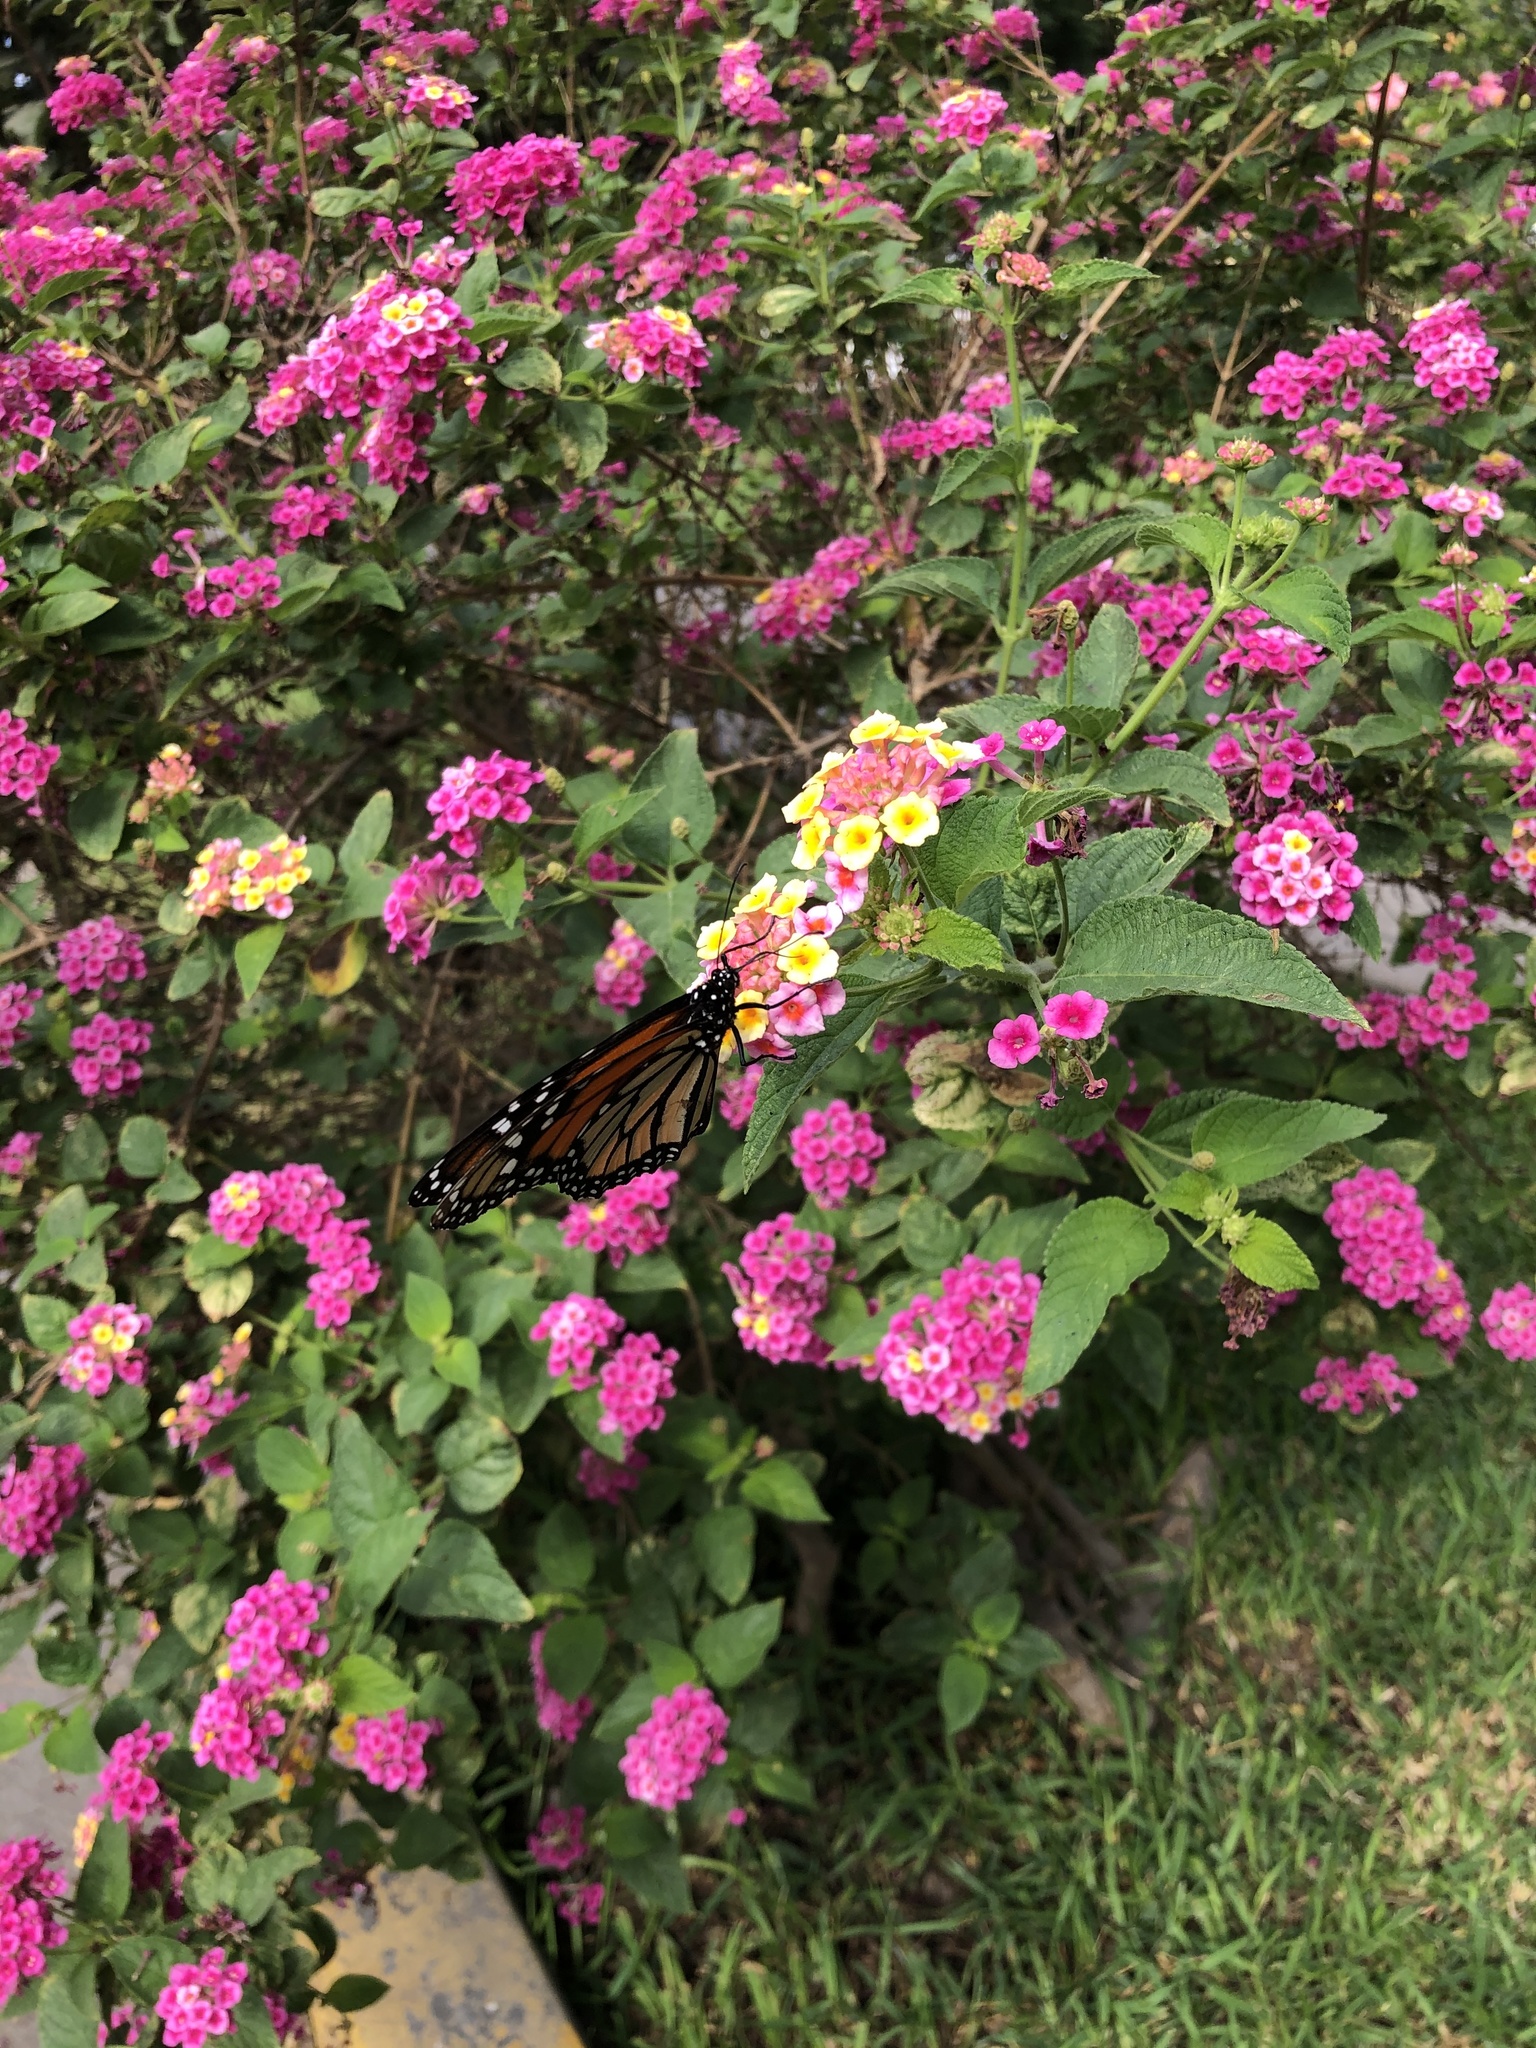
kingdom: Animalia
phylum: Arthropoda
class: Insecta
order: Lepidoptera
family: Nymphalidae
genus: Danaus
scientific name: Danaus plexippus
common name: Monarch
